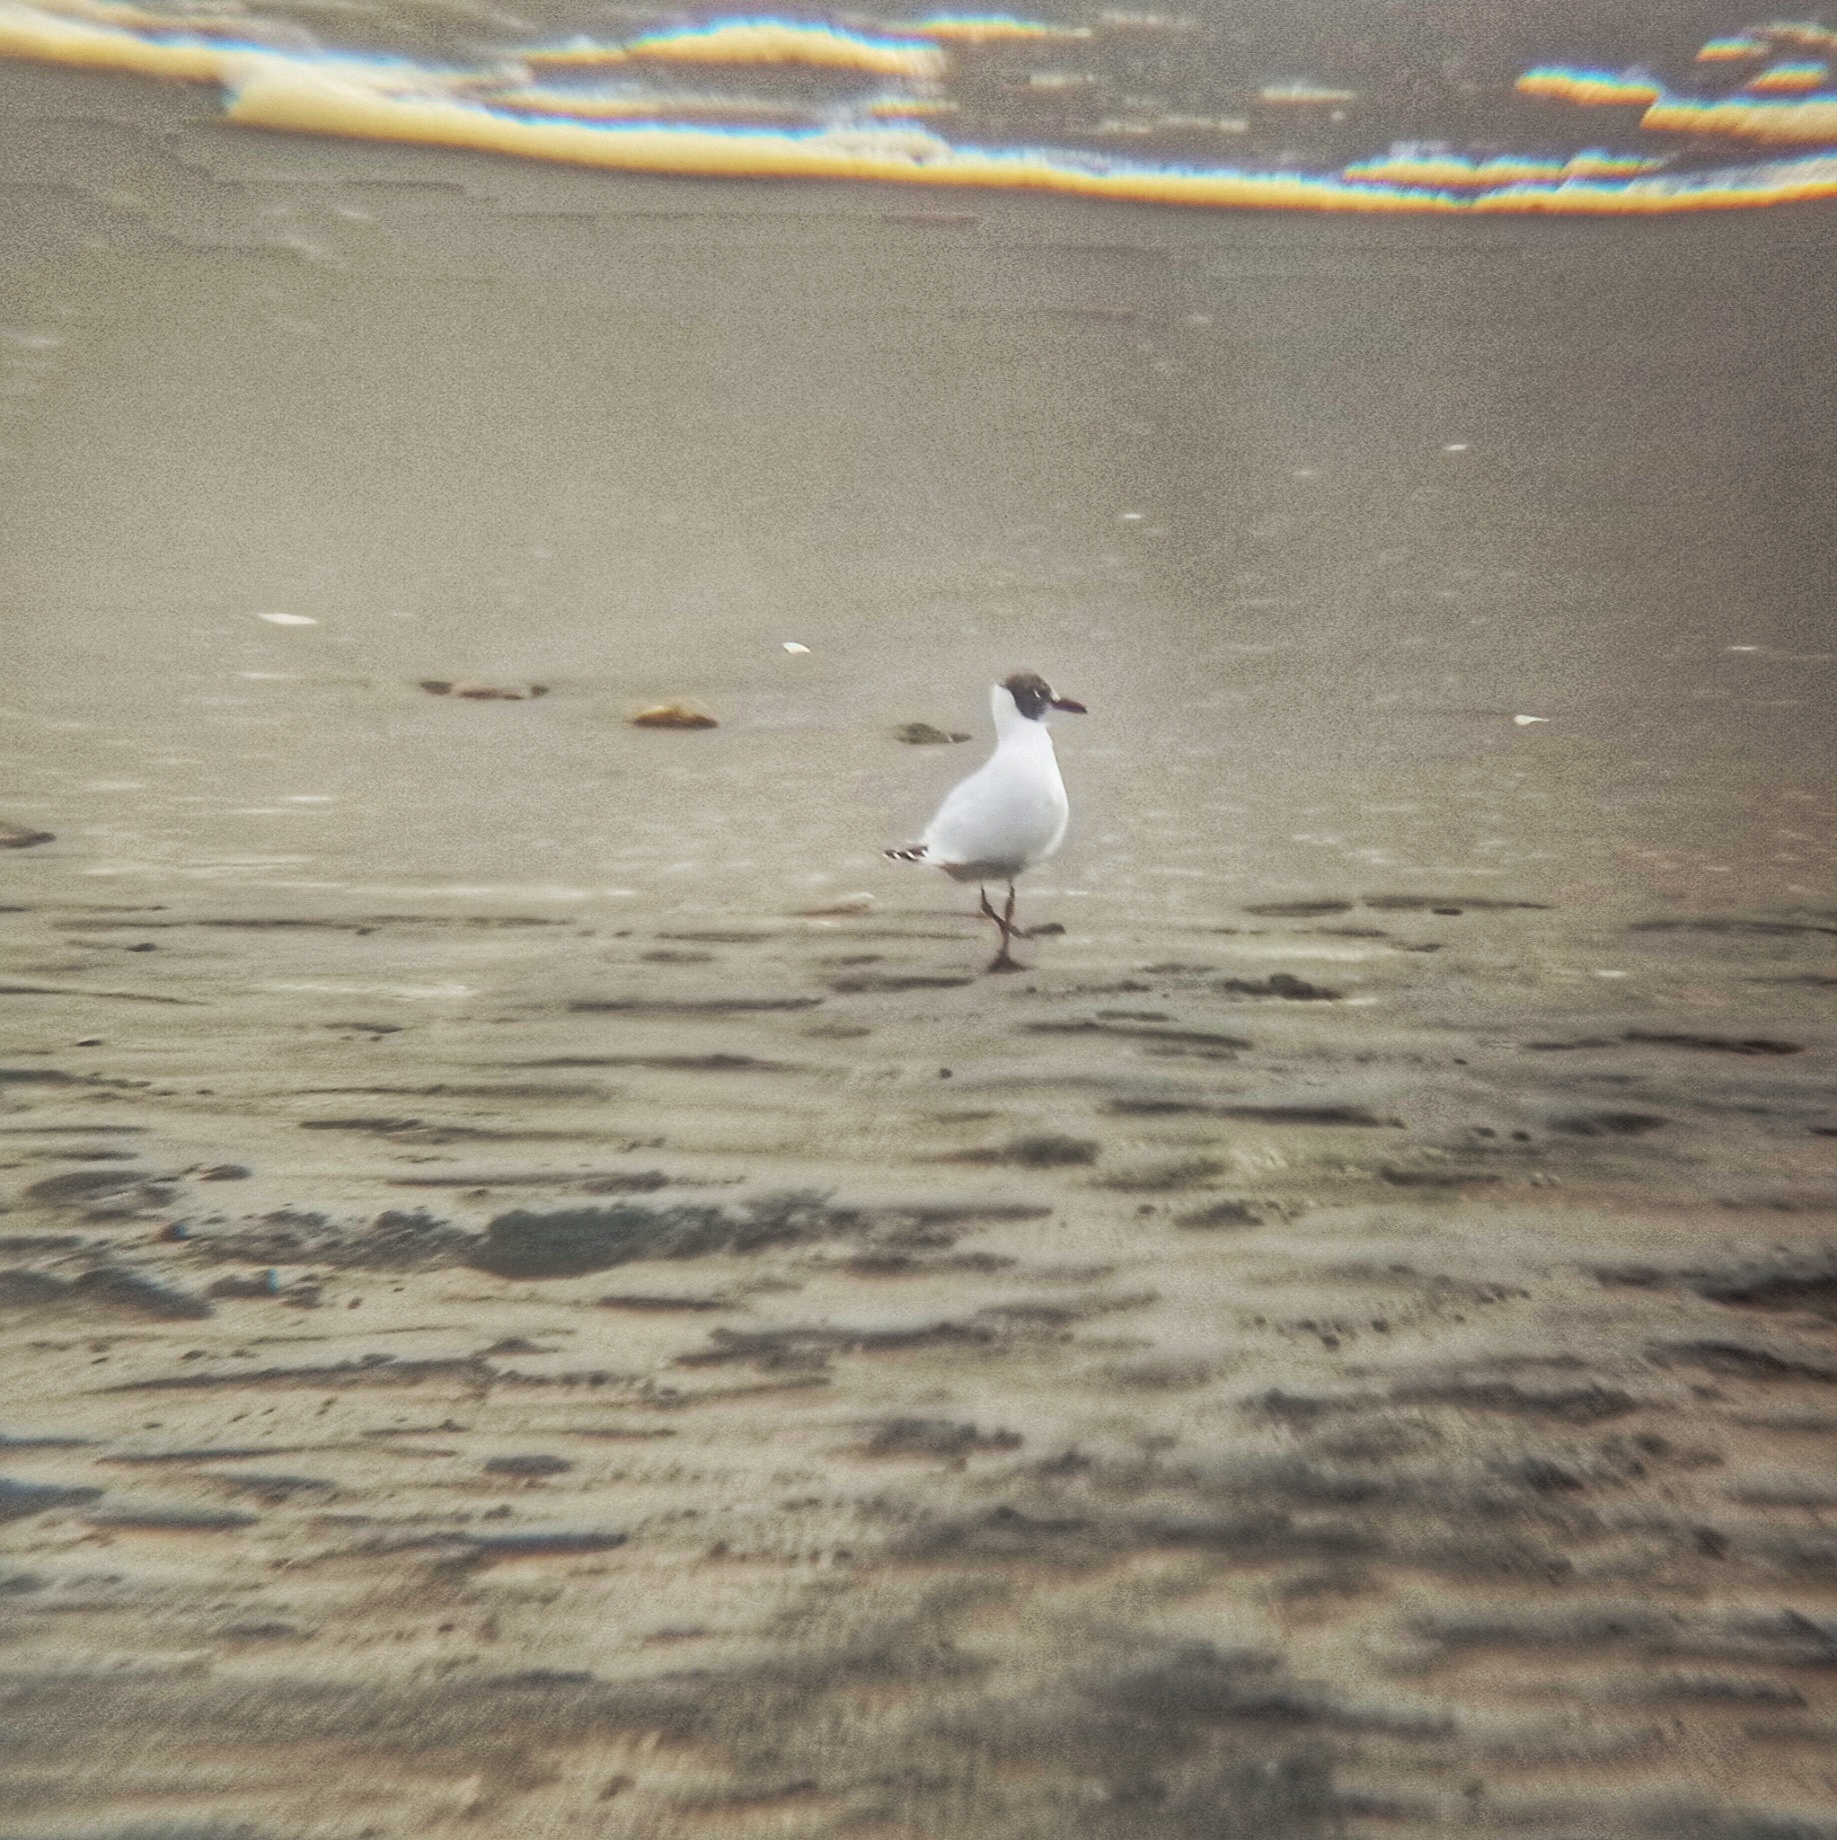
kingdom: Animalia
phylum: Chordata
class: Aves
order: Charadriiformes
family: Laridae
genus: Chroicocephalus
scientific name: Chroicocephalus maculipennis
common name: Brown-hooded gull
